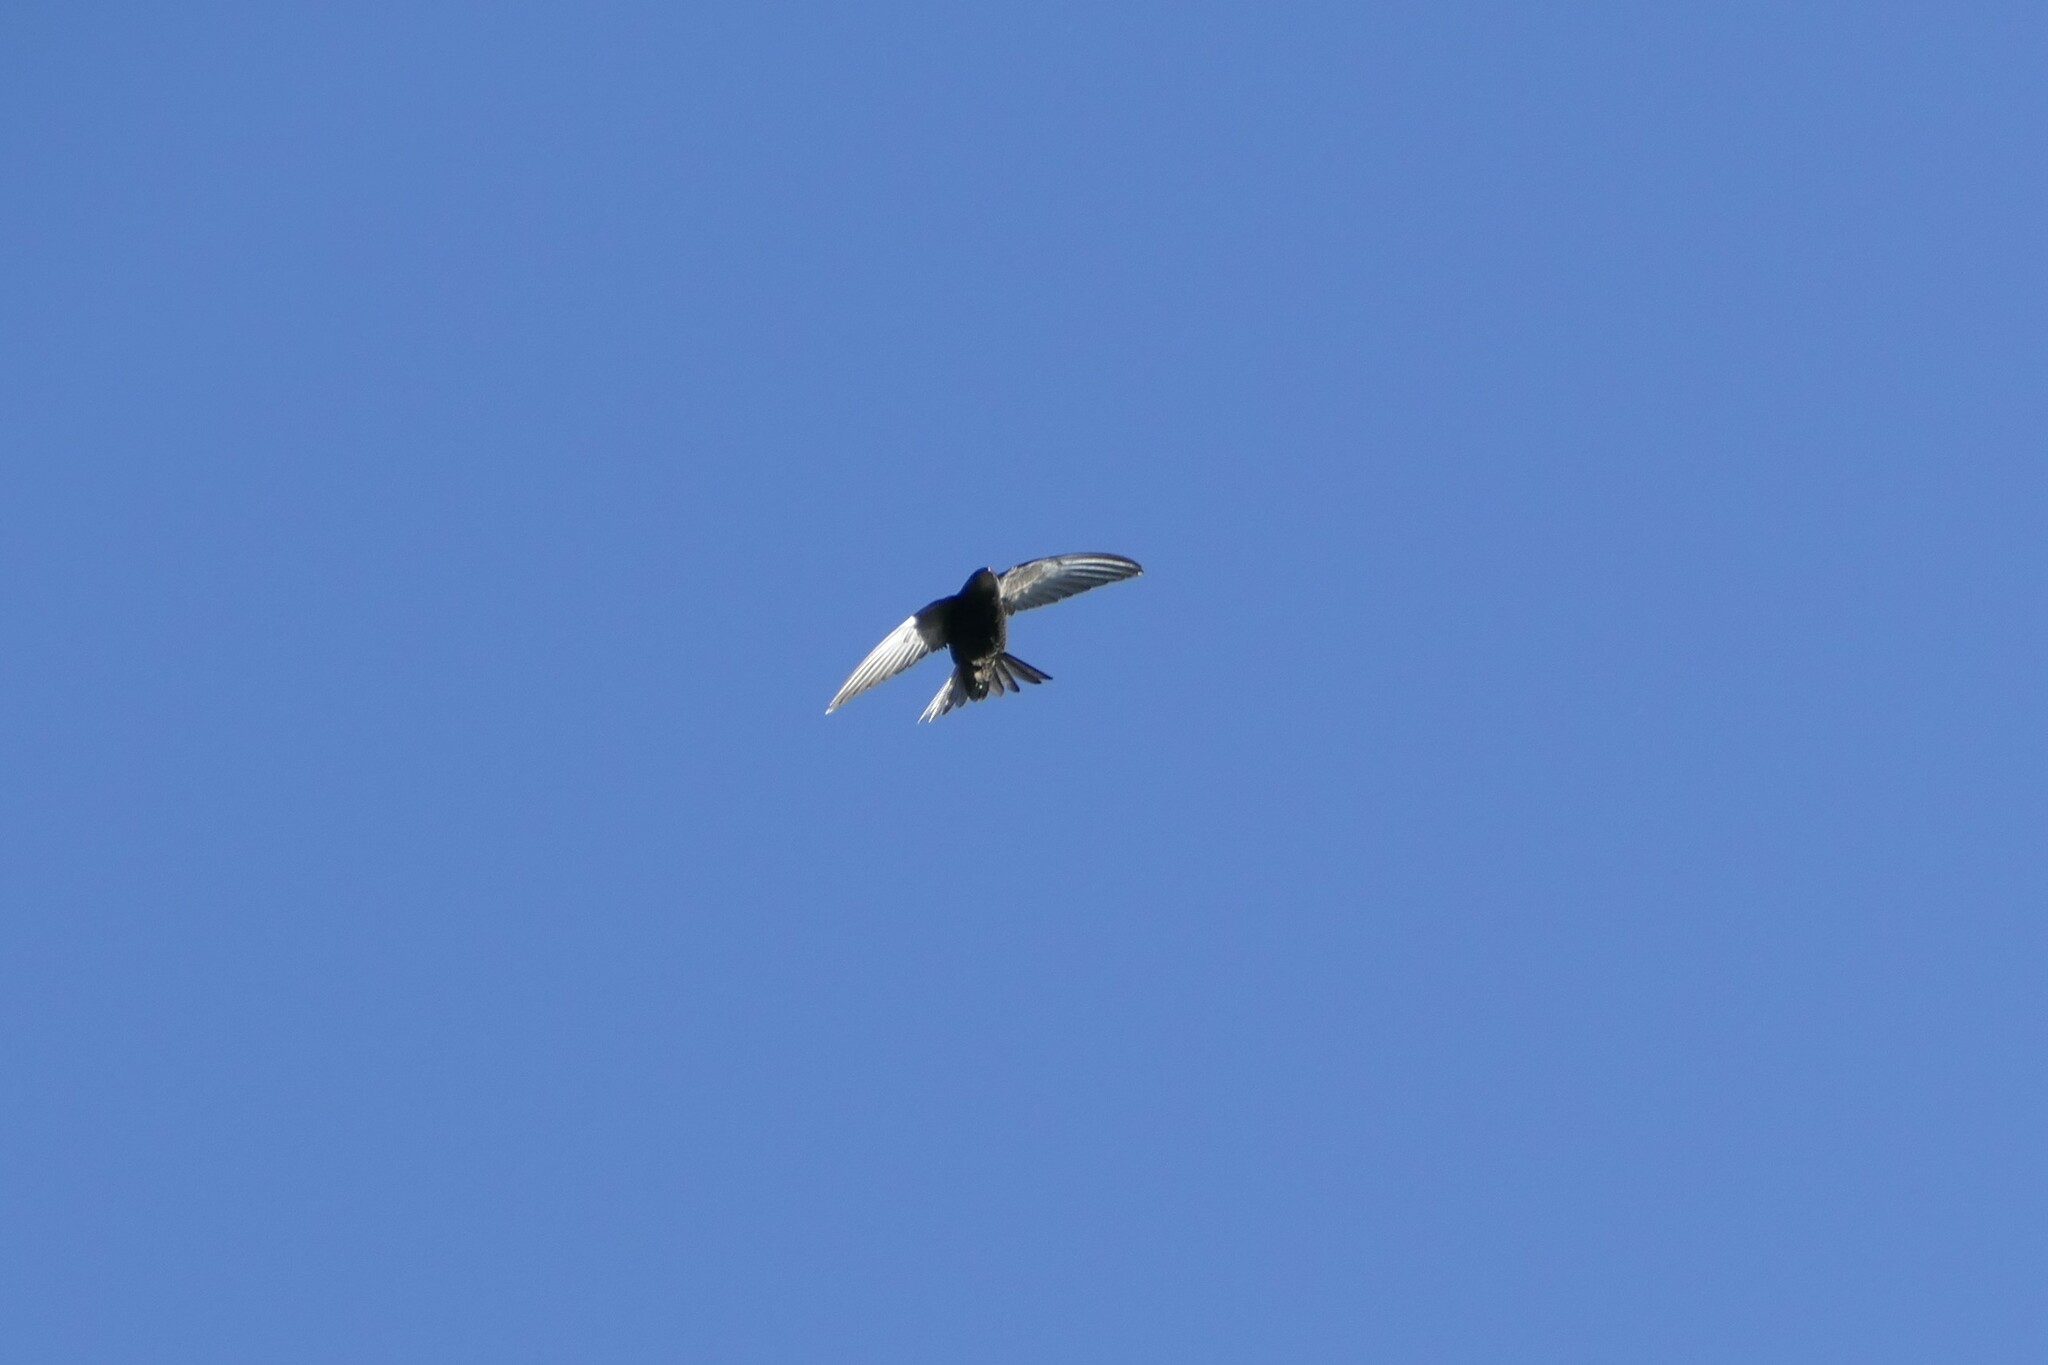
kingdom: Animalia
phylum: Chordata
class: Aves
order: Apodiformes
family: Apodidae
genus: Apus
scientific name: Apus apus
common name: Common swift
